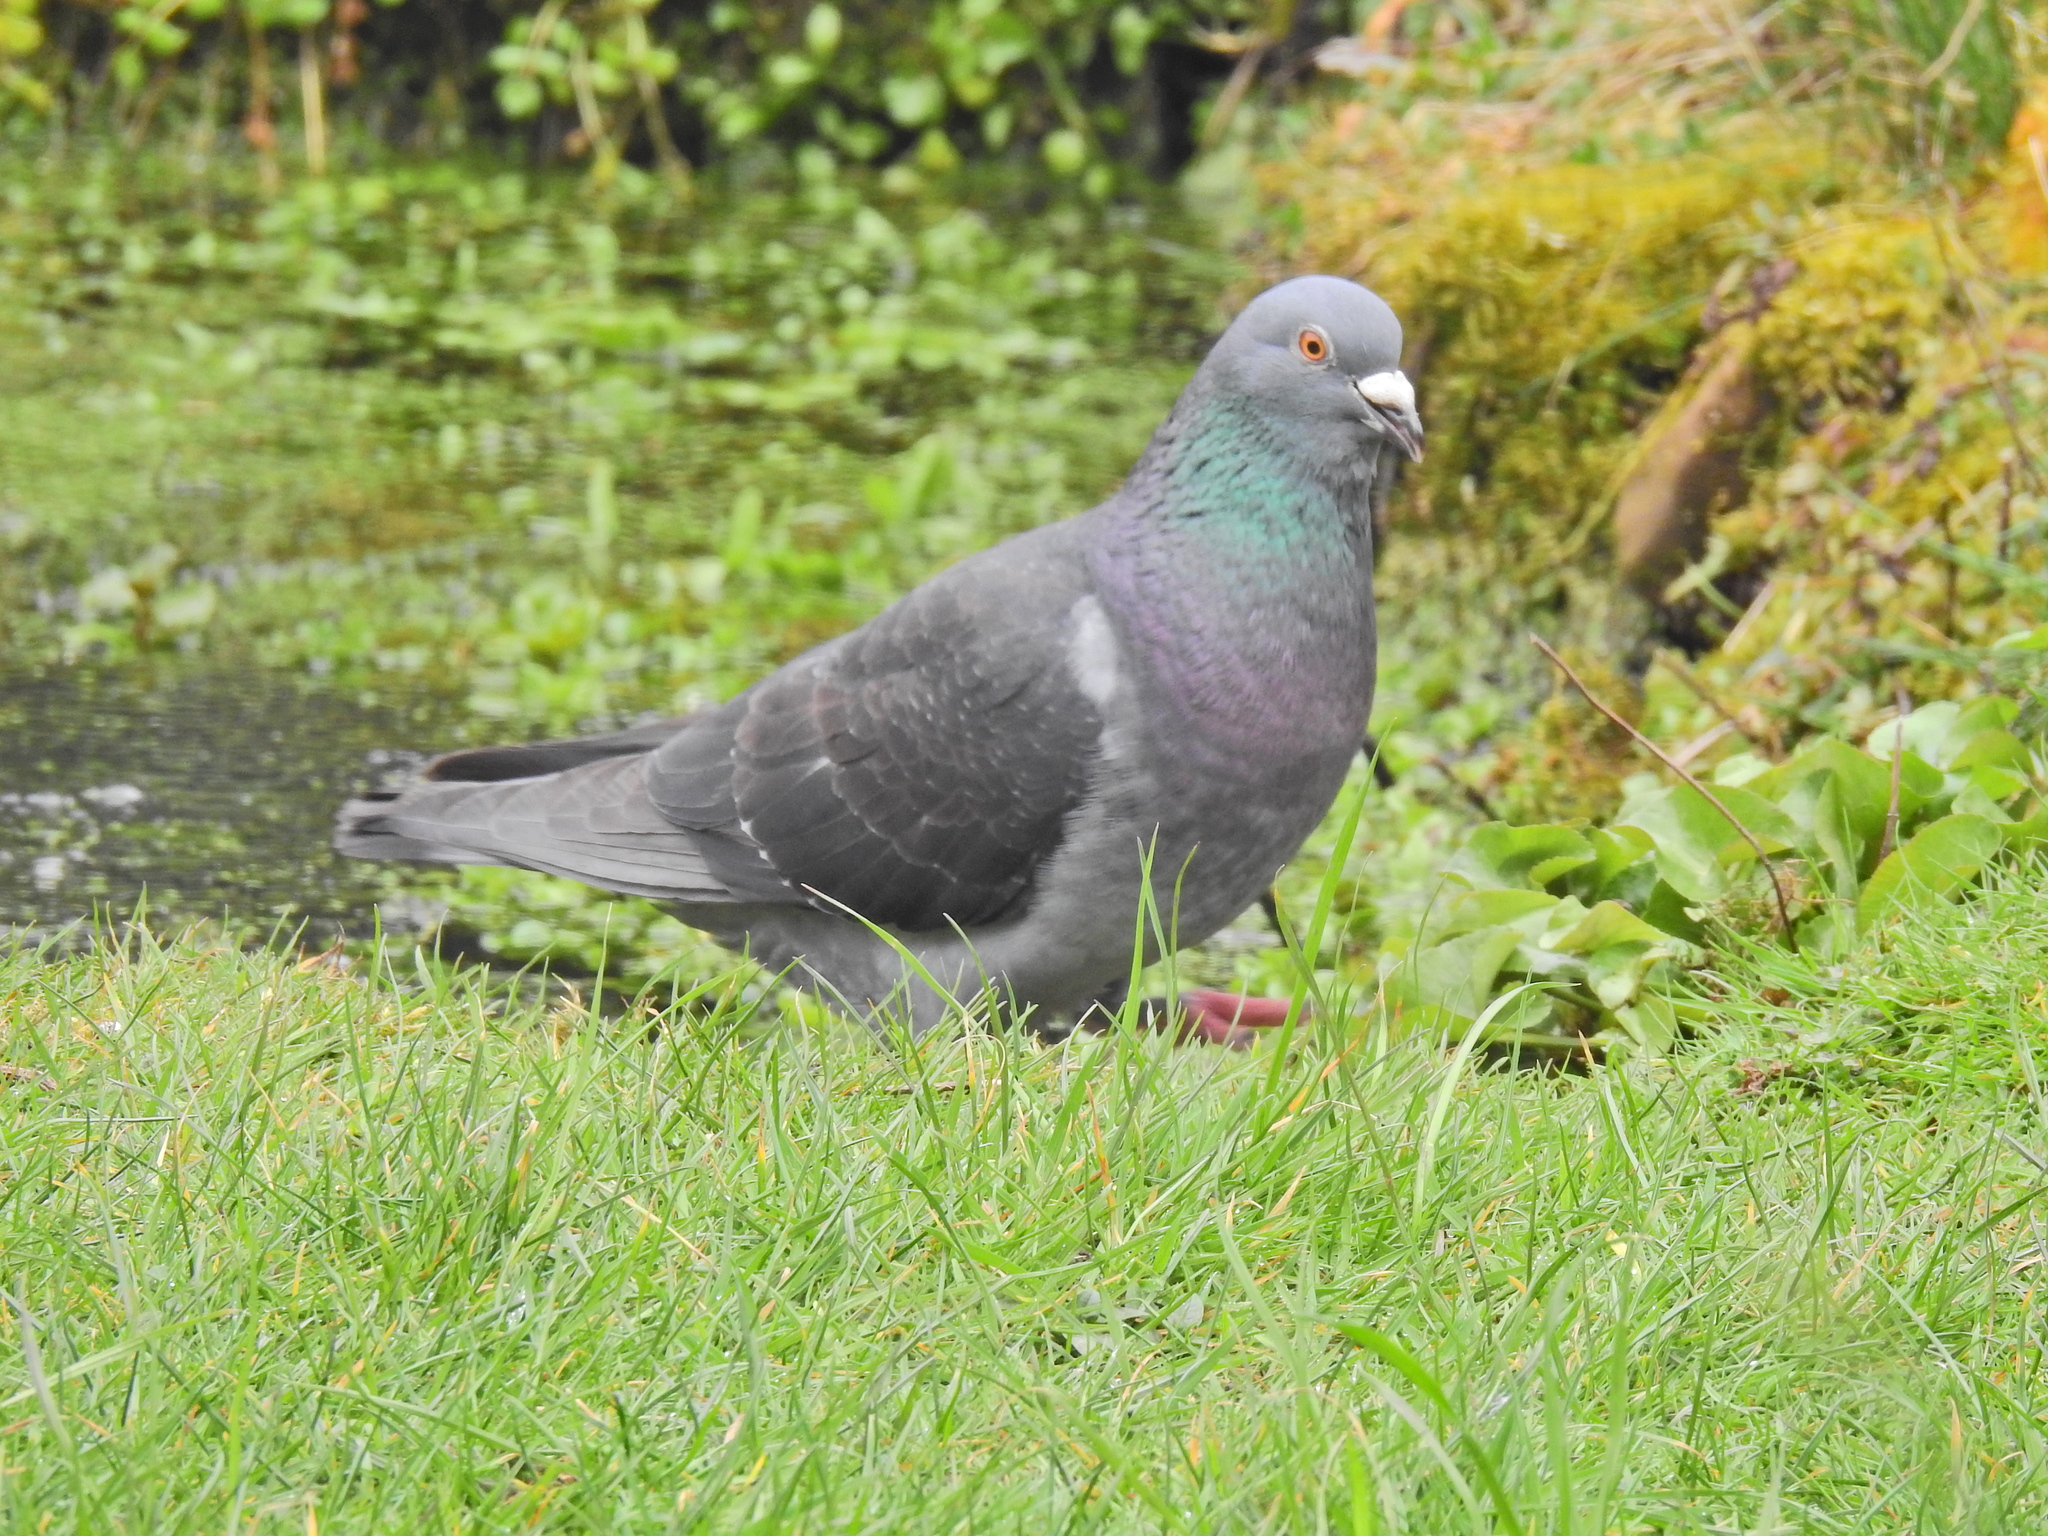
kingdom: Animalia
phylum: Chordata
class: Aves
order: Columbiformes
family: Columbidae
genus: Columba
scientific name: Columba livia
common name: Rock pigeon
